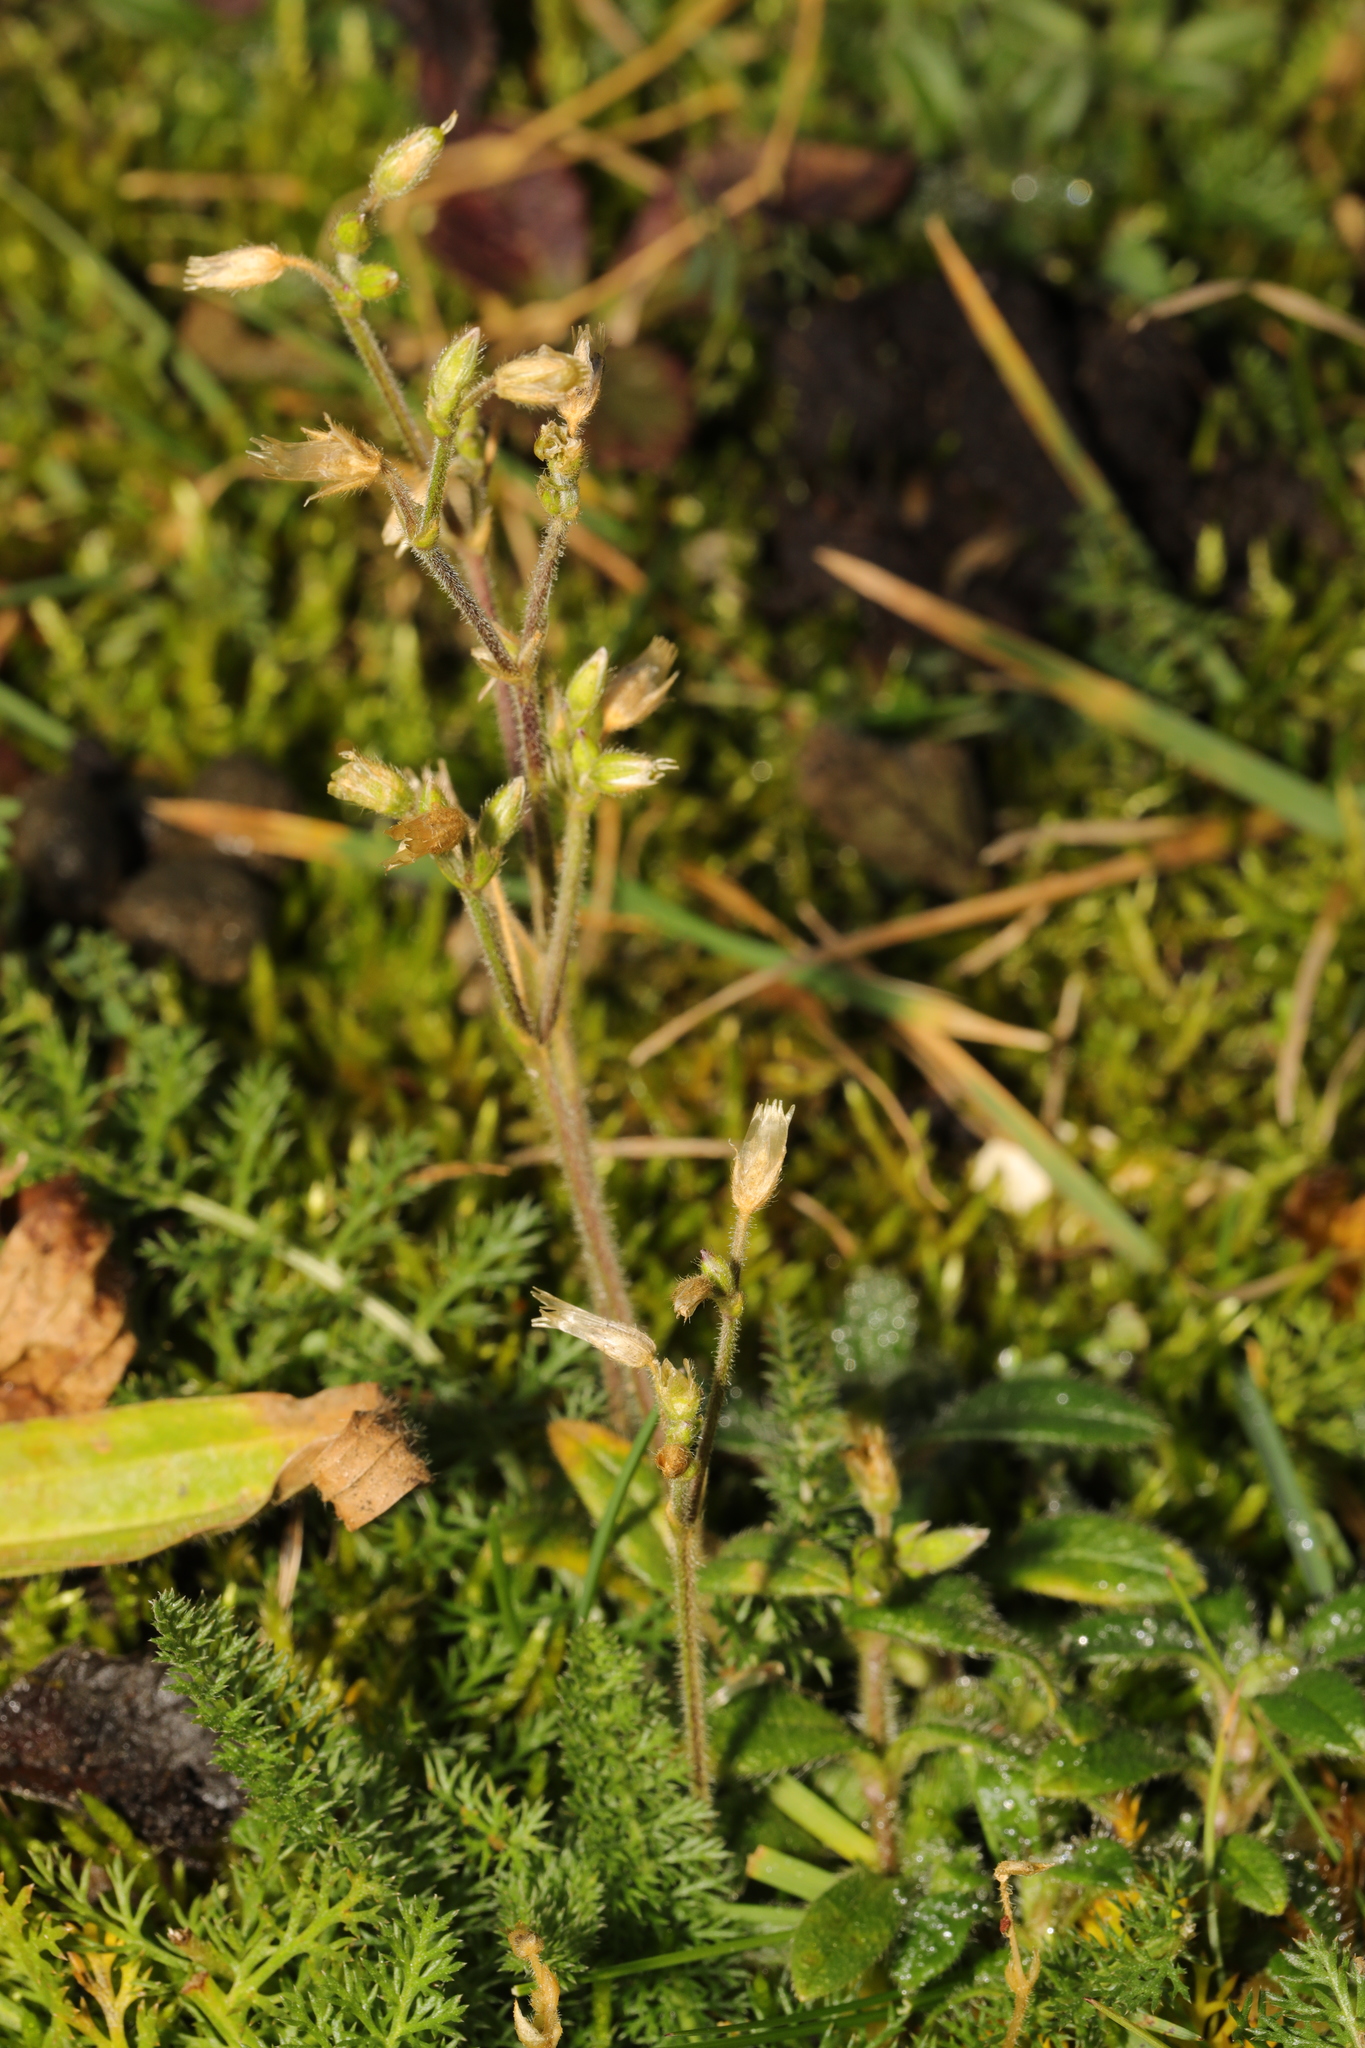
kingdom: Plantae
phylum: Tracheophyta
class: Magnoliopsida
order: Caryophyllales
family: Caryophyllaceae
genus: Cerastium
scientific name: Cerastium fontanum
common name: Common mouse-ear
